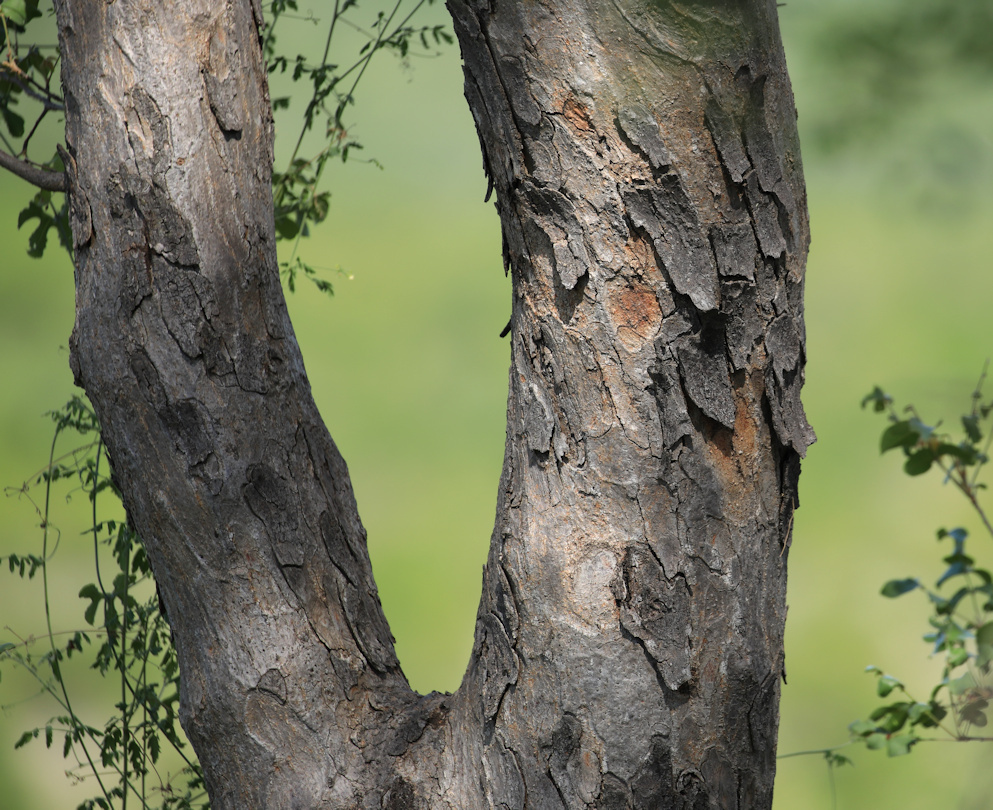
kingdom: Plantae
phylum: Tracheophyta
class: Magnoliopsida
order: Sapindales
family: Anacardiaceae
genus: Lannea
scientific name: Lannea schweinfurthii
